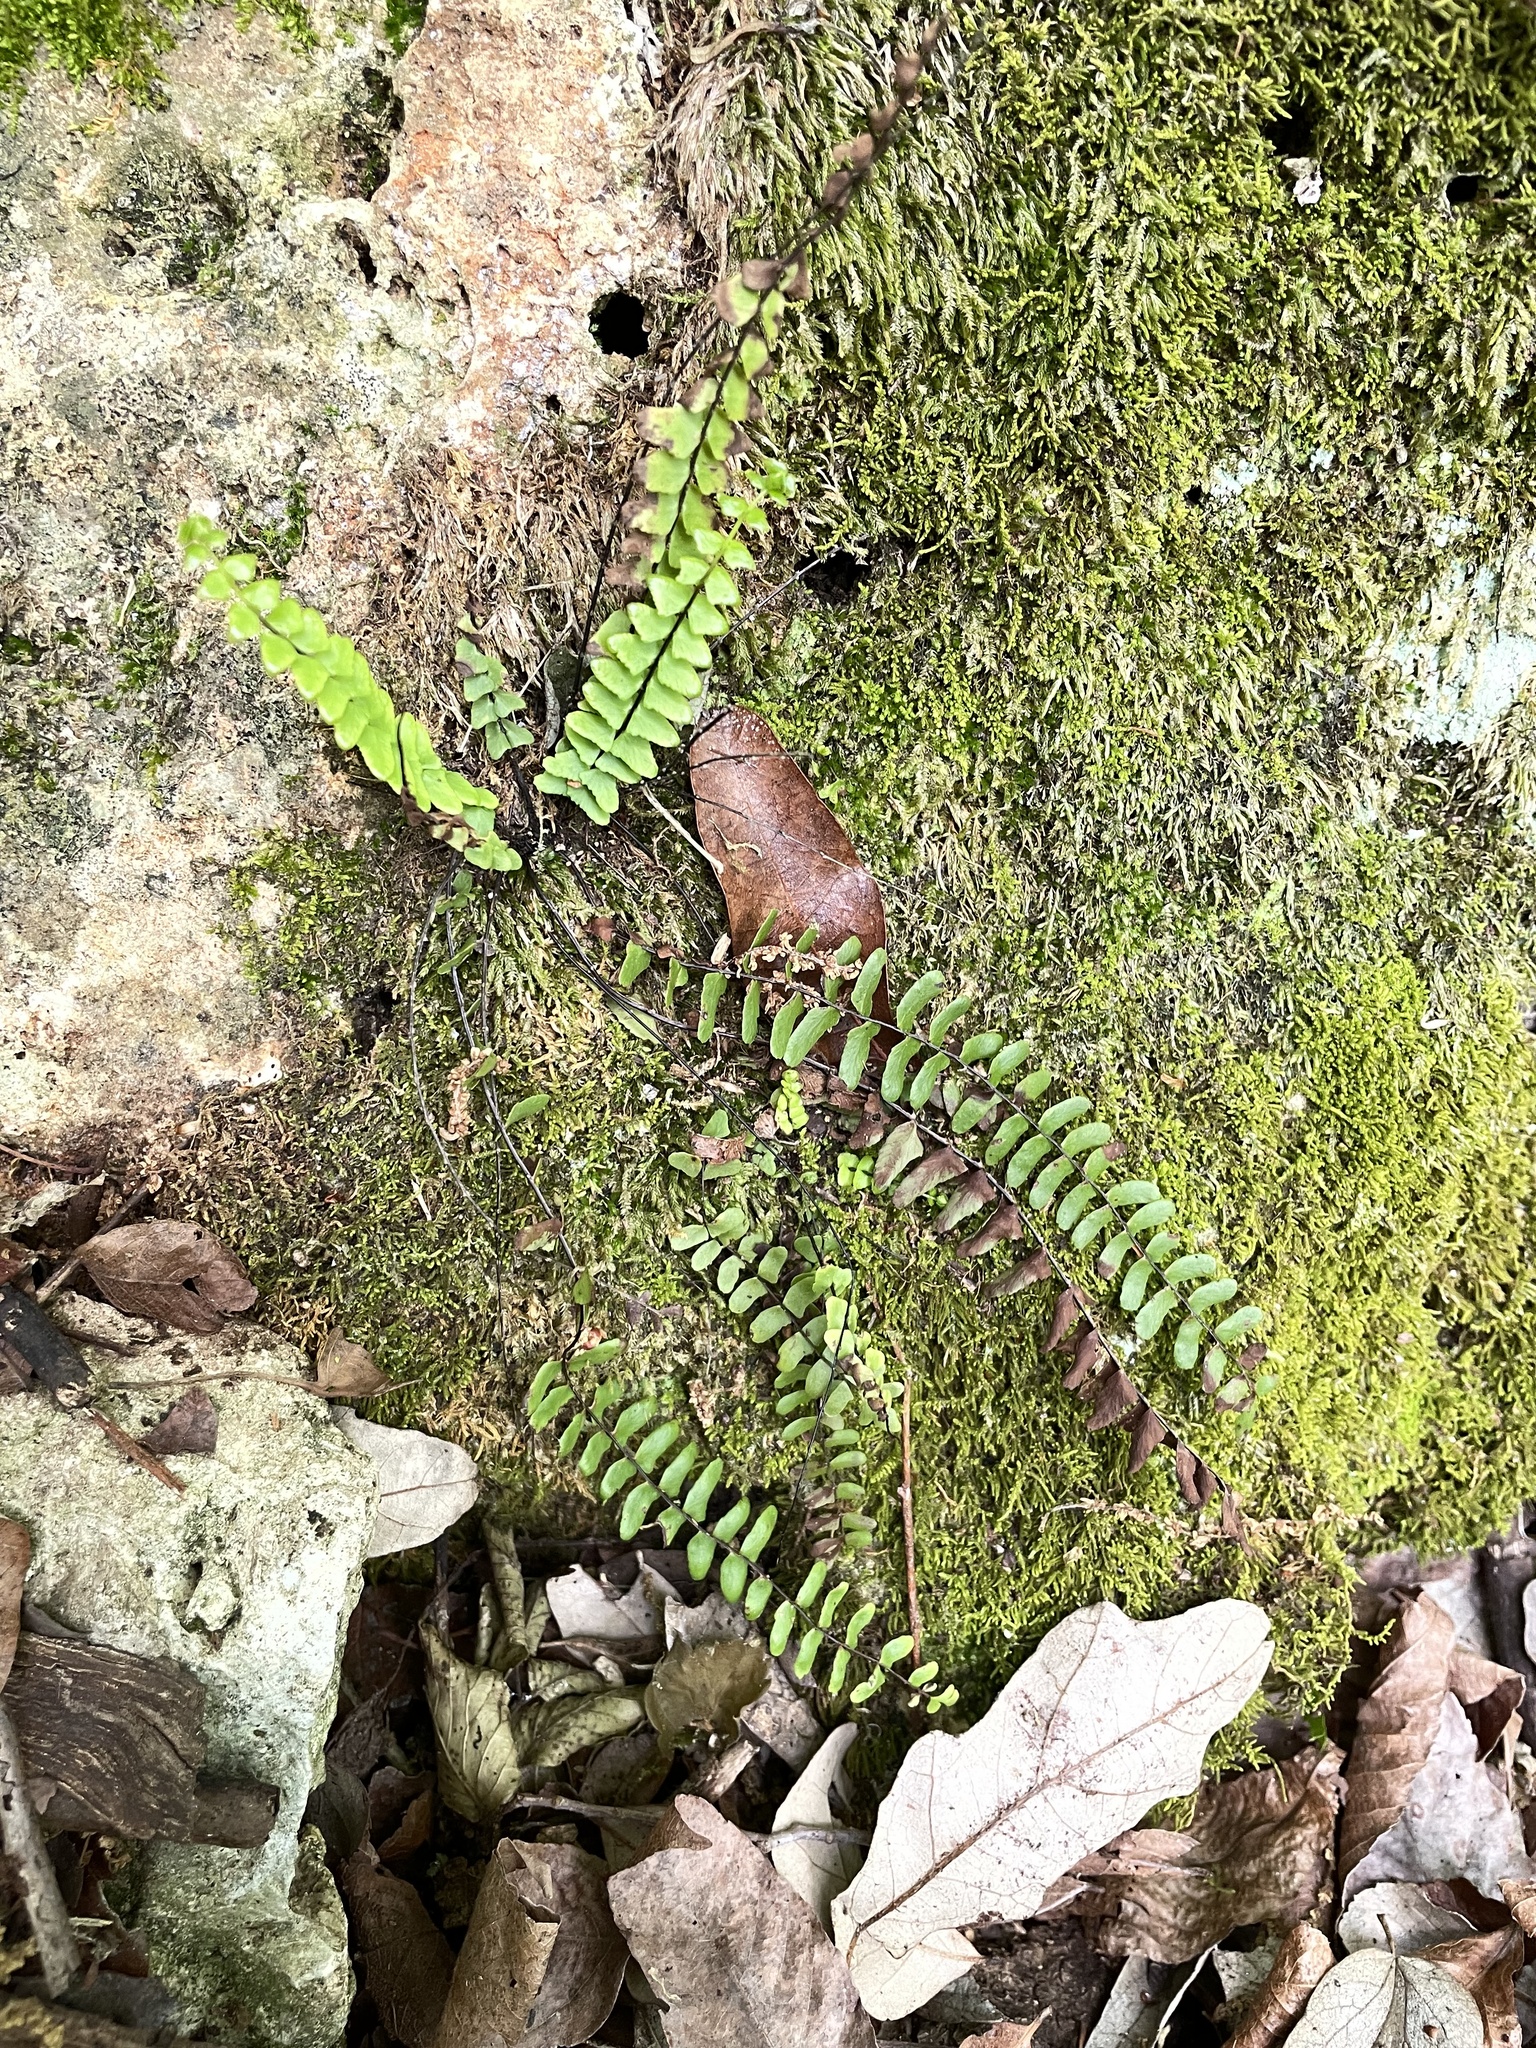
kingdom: Plantae
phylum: Tracheophyta
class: Polypodiopsida
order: Polypodiales
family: Aspleniaceae
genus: Asplenium
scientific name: Asplenium resiliens
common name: Blackstem spleenwort
